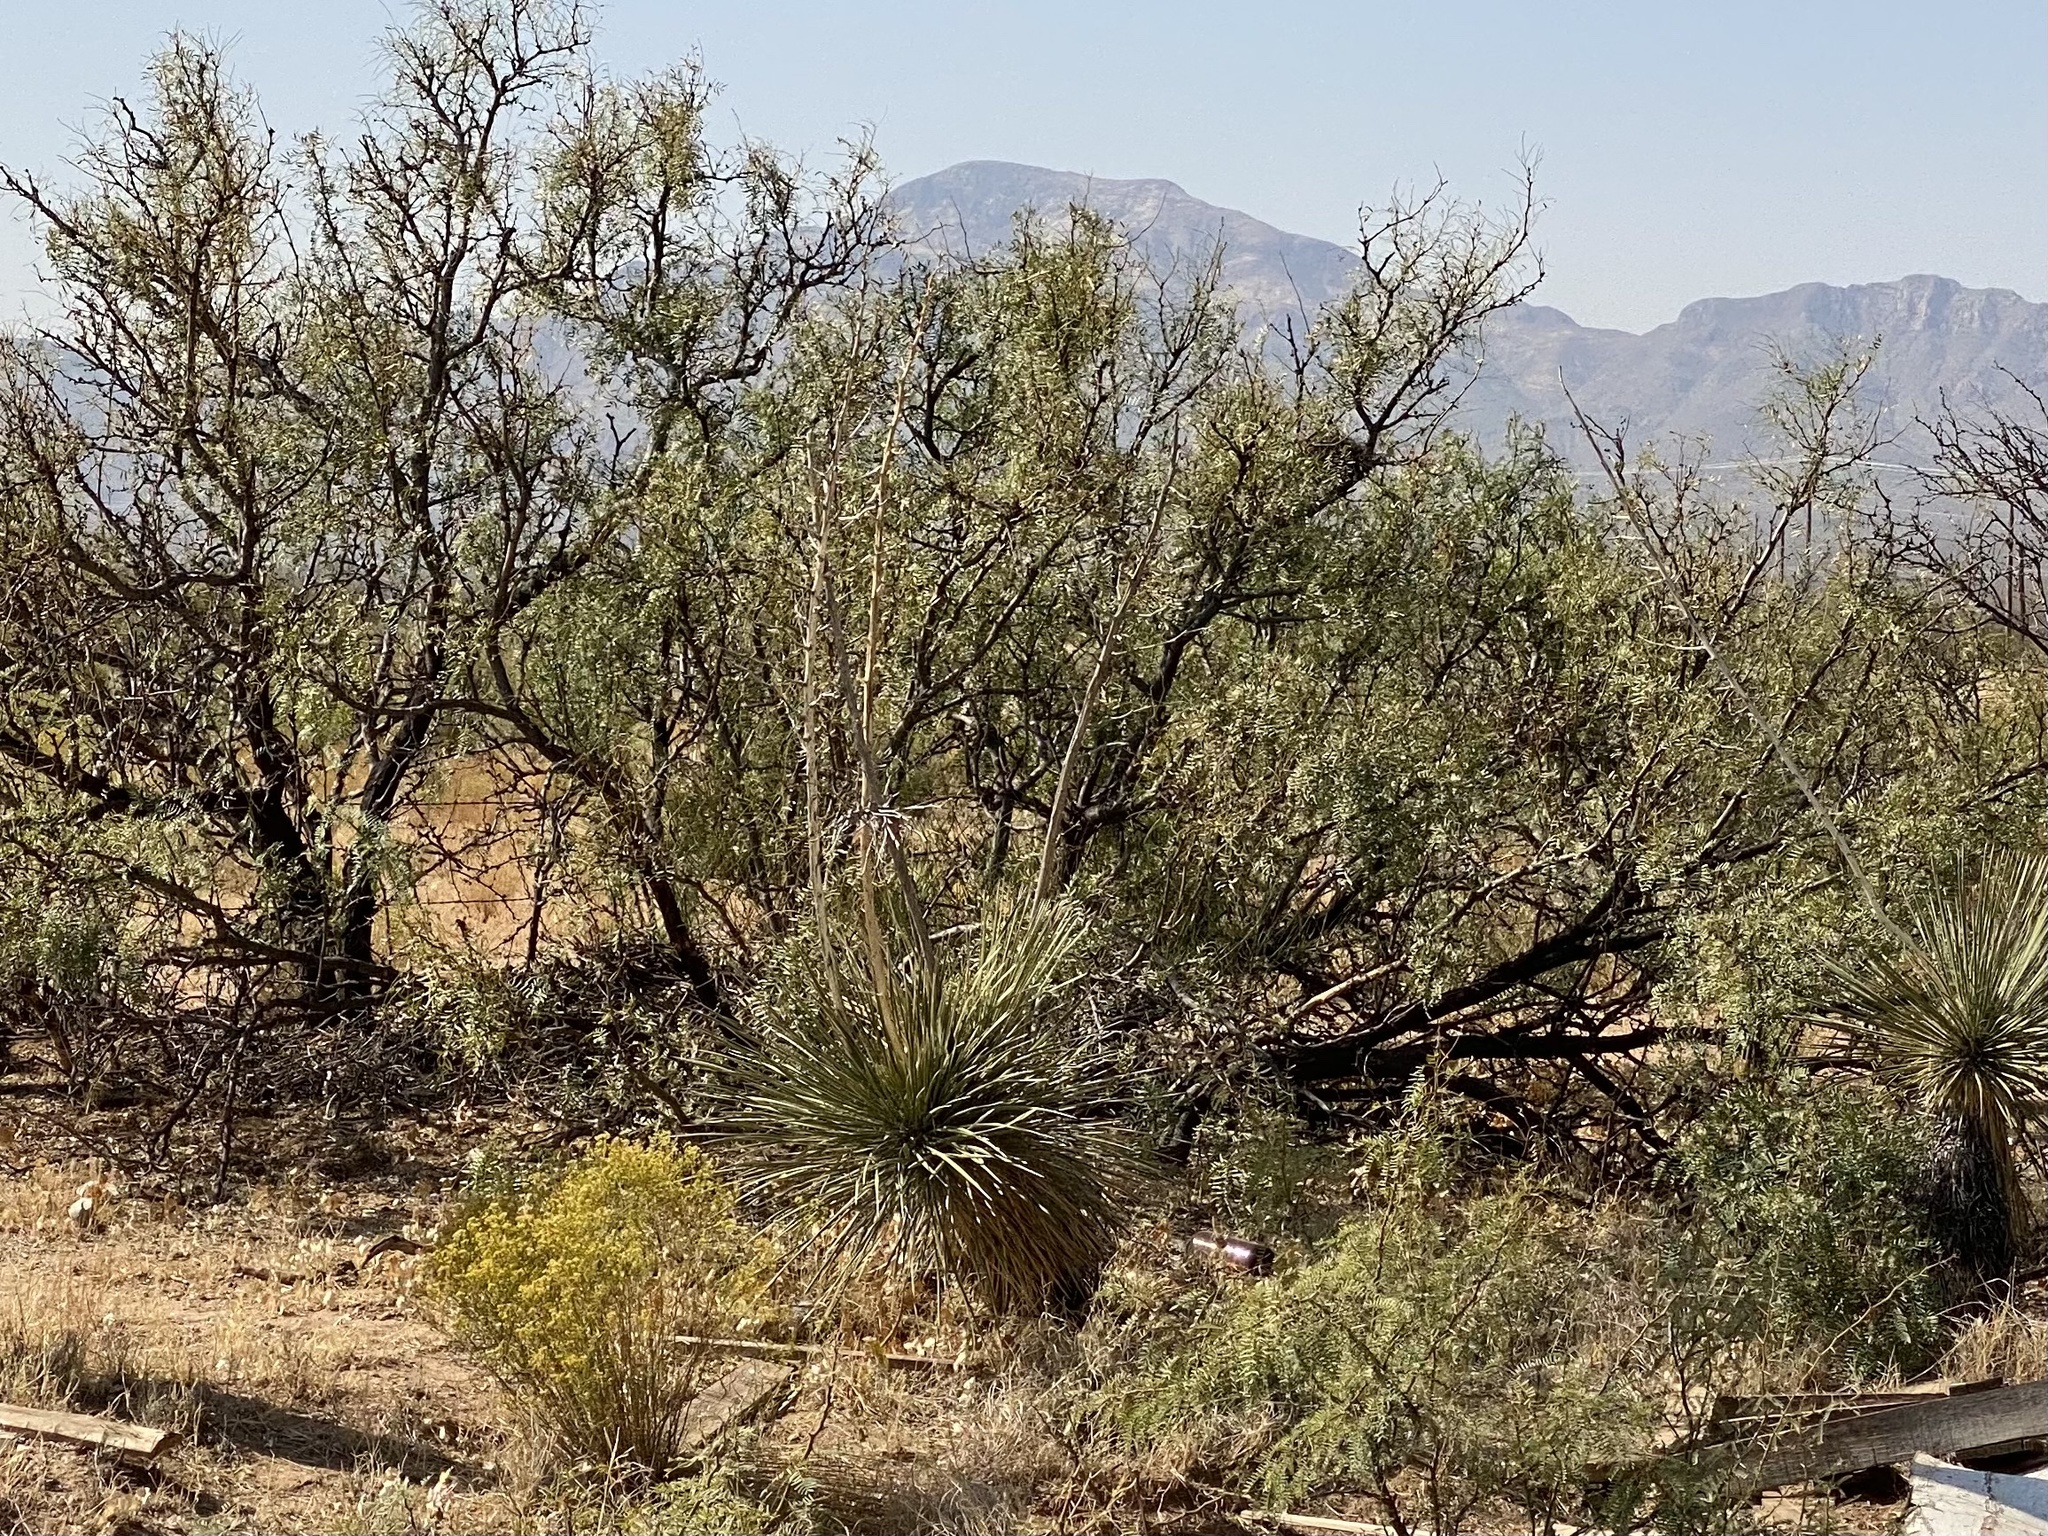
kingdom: Plantae
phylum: Tracheophyta
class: Liliopsida
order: Asparagales
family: Asparagaceae
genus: Yucca
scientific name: Yucca elata
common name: Palmella
